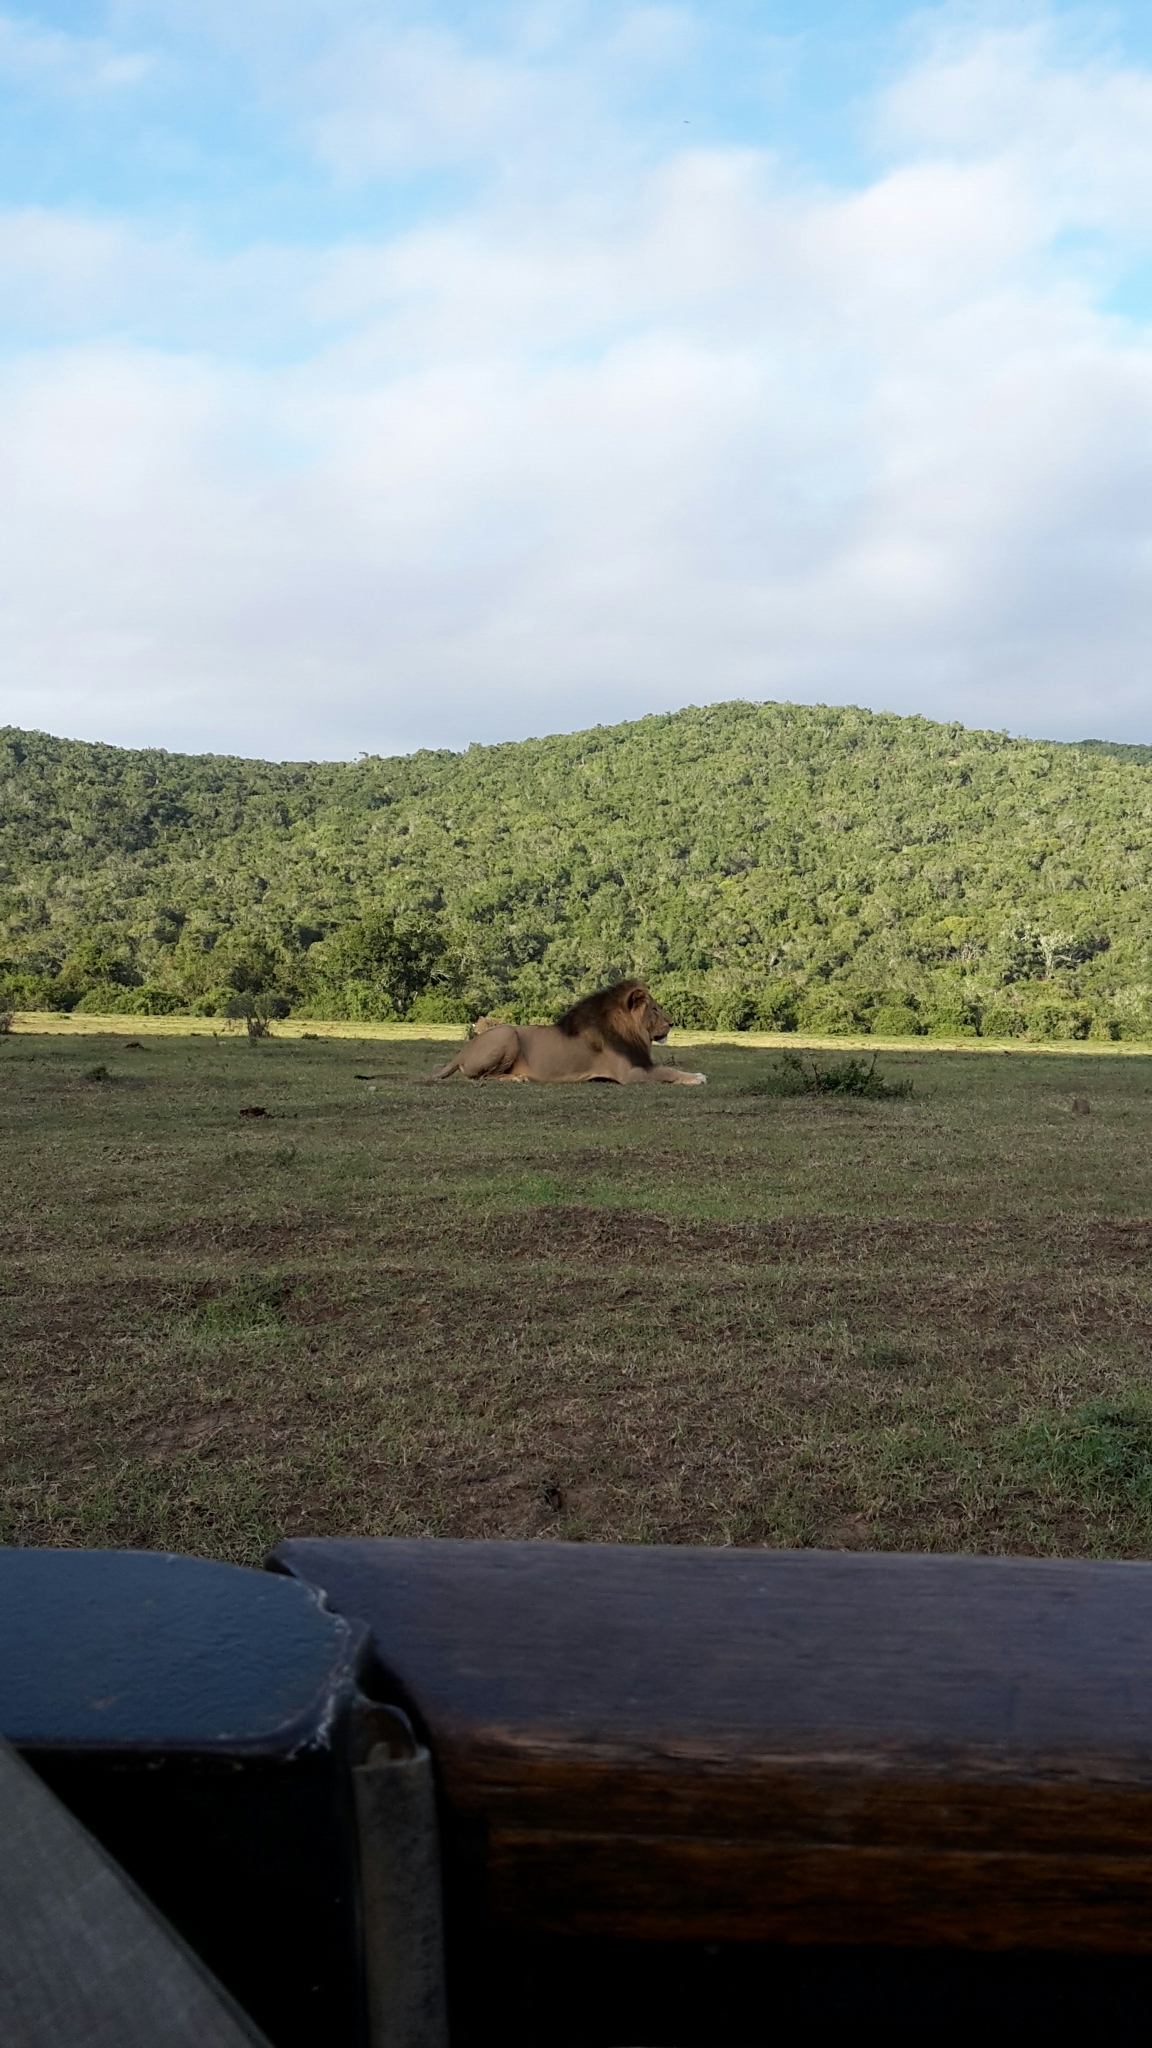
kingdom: Animalia
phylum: Chordata
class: Mammalia
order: Carnivora
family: Felidae
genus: Panthera
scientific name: Panthera leo
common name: Lion
